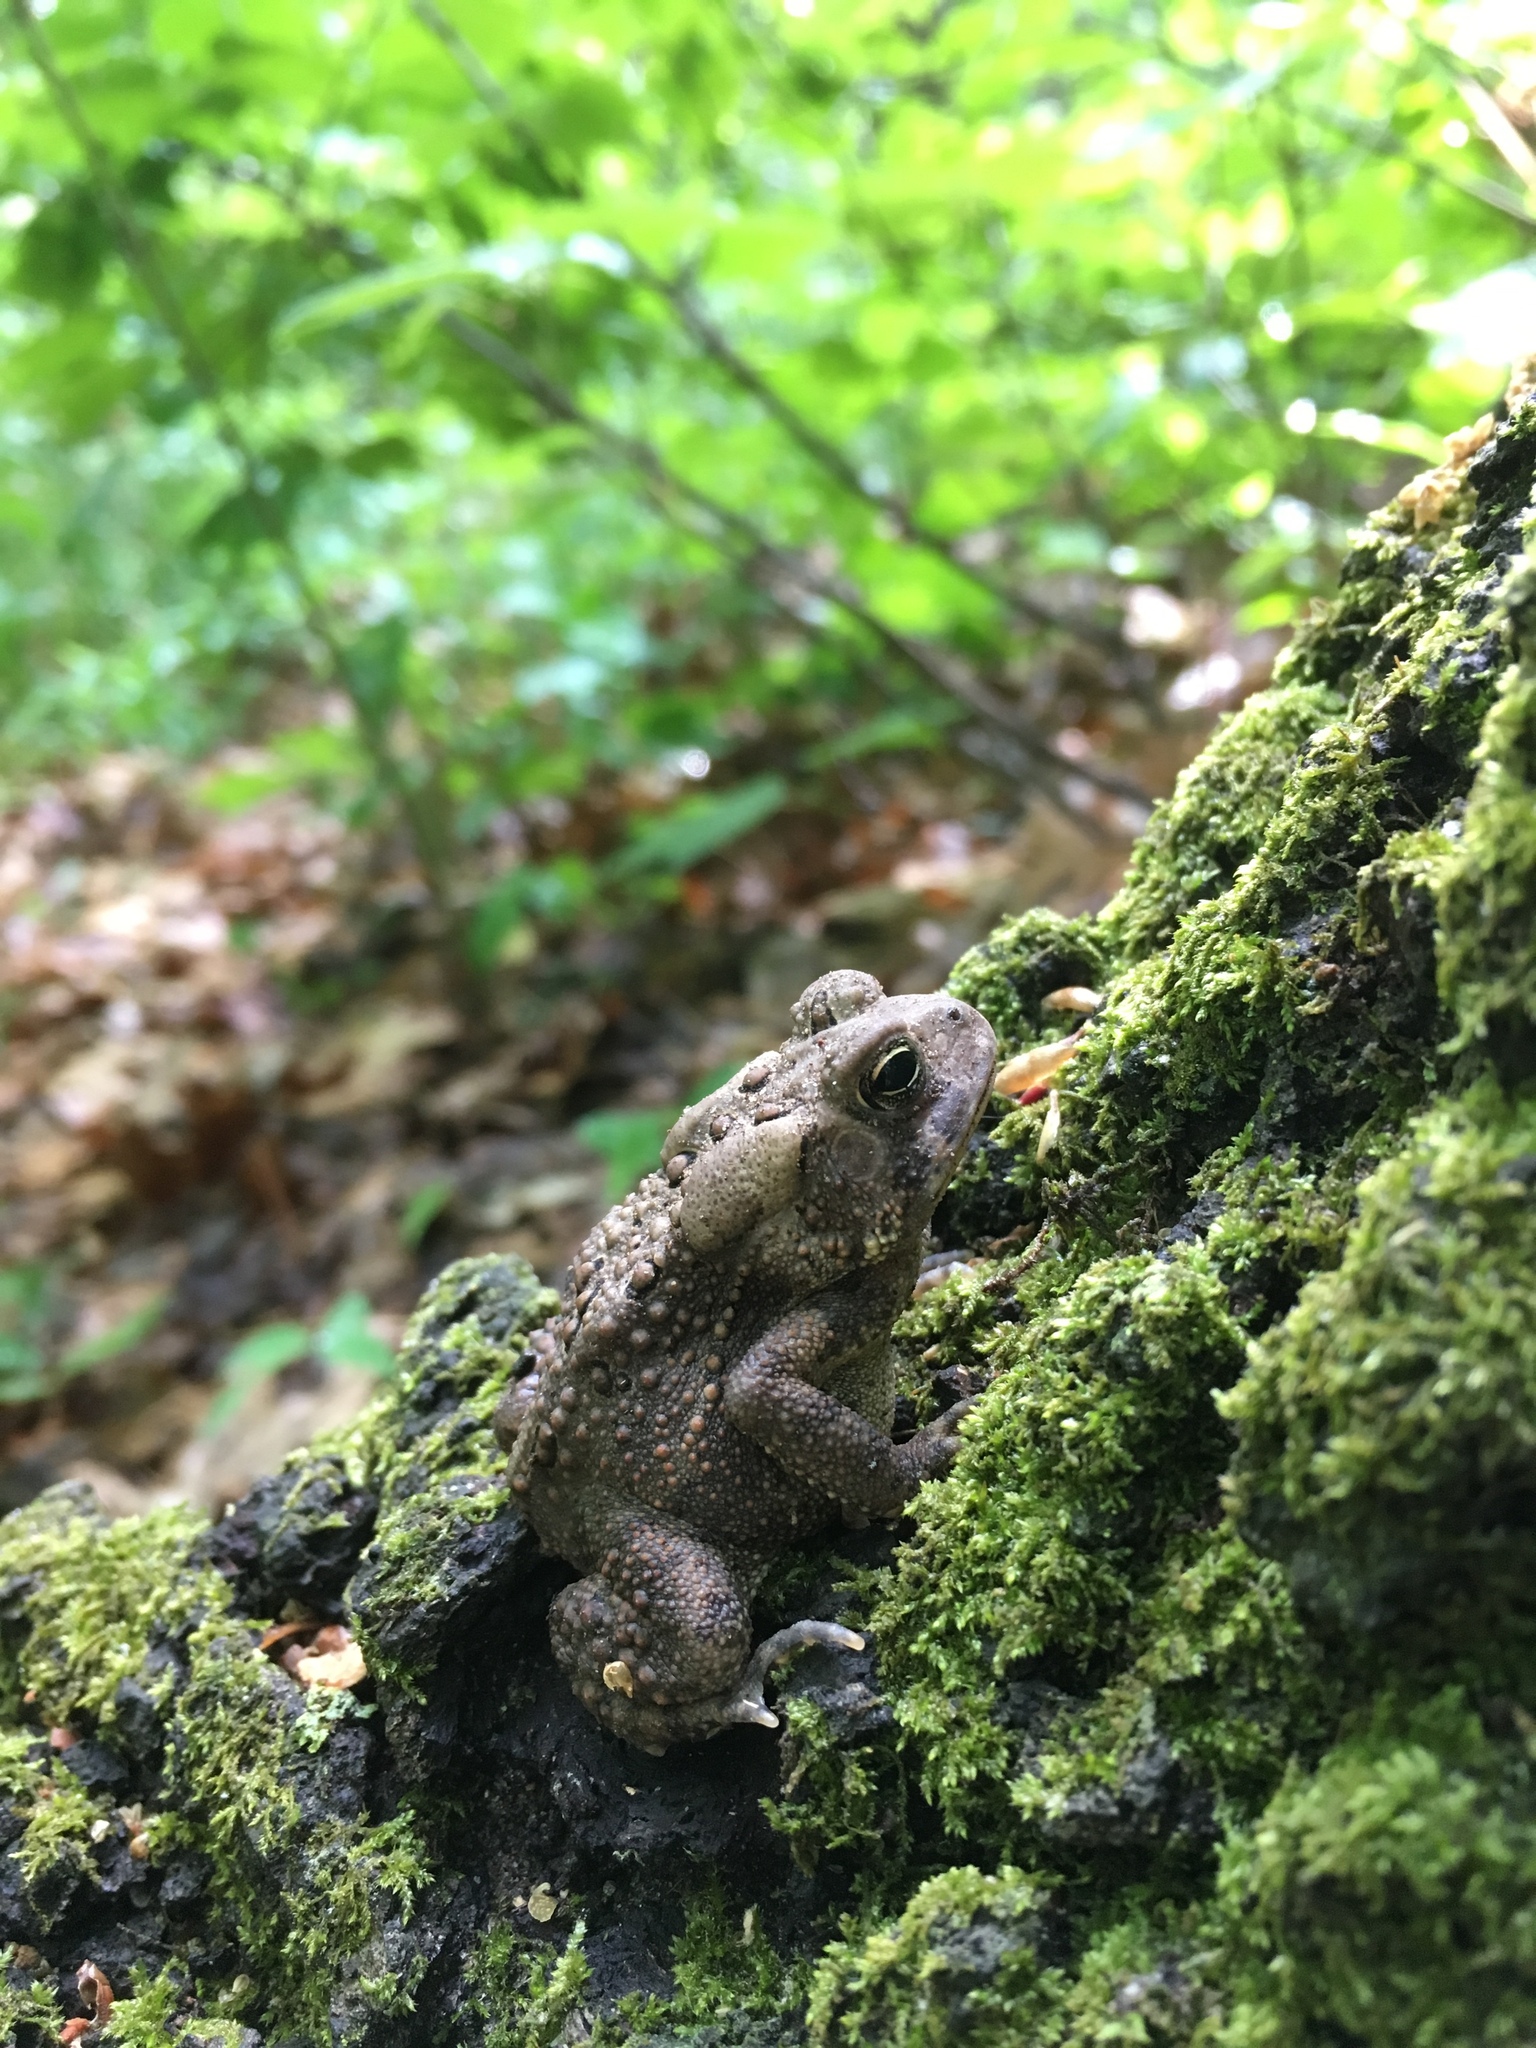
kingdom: Animalia
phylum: Chordata
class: Amphibia
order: Anura
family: Bufonidae
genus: Anaxyrus
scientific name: Anaxyrus americanus
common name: American toad
